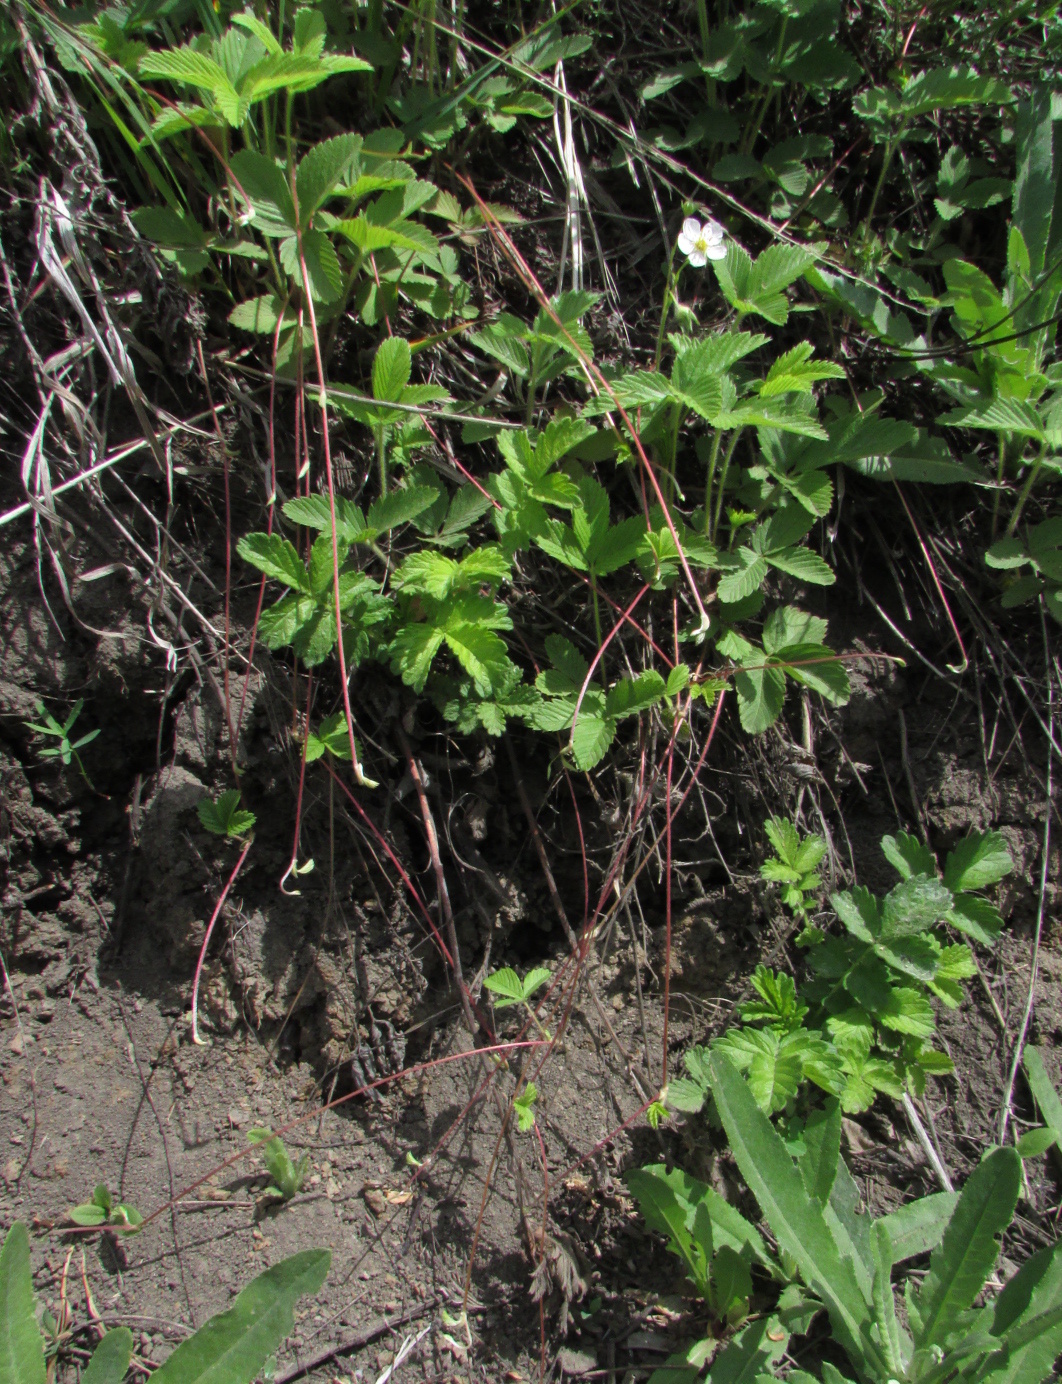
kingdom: Plantae
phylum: Tracheophyta
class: Magnoliopsida
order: Rosales
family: Rosaceae
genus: Fragaria
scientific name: Fragaria viridis
